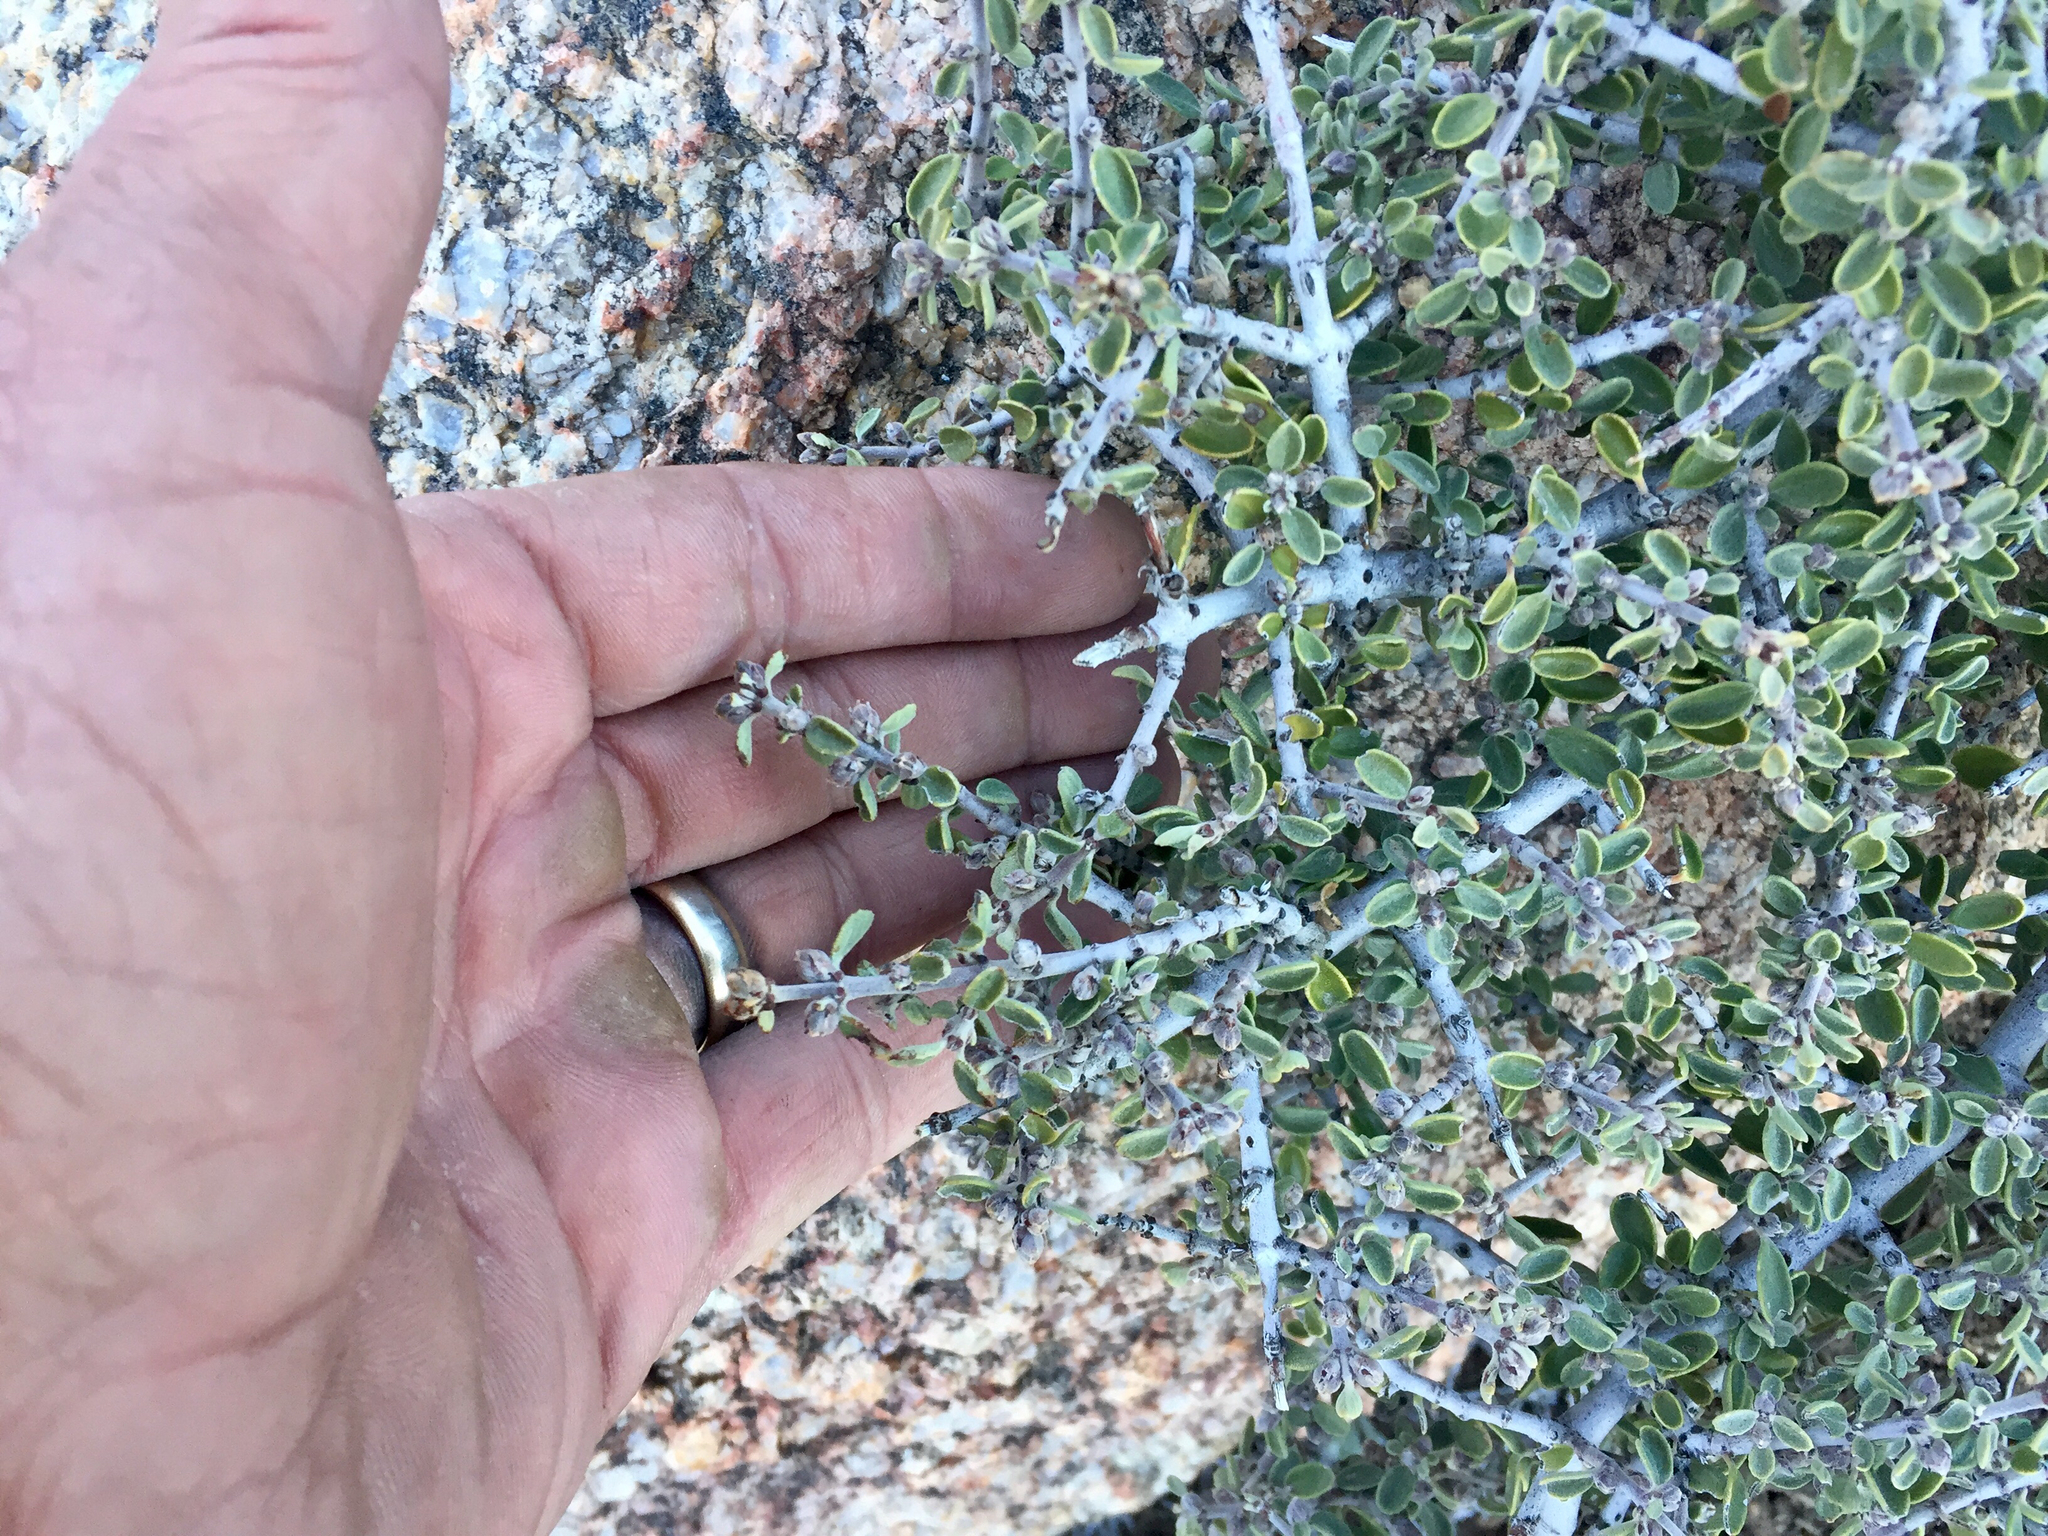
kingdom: Plantae
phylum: Tracheophyta
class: Magnoliopsida
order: Rosales
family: Rhamnaceae
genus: Ceanothus
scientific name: Ceanothus pauciflorus
